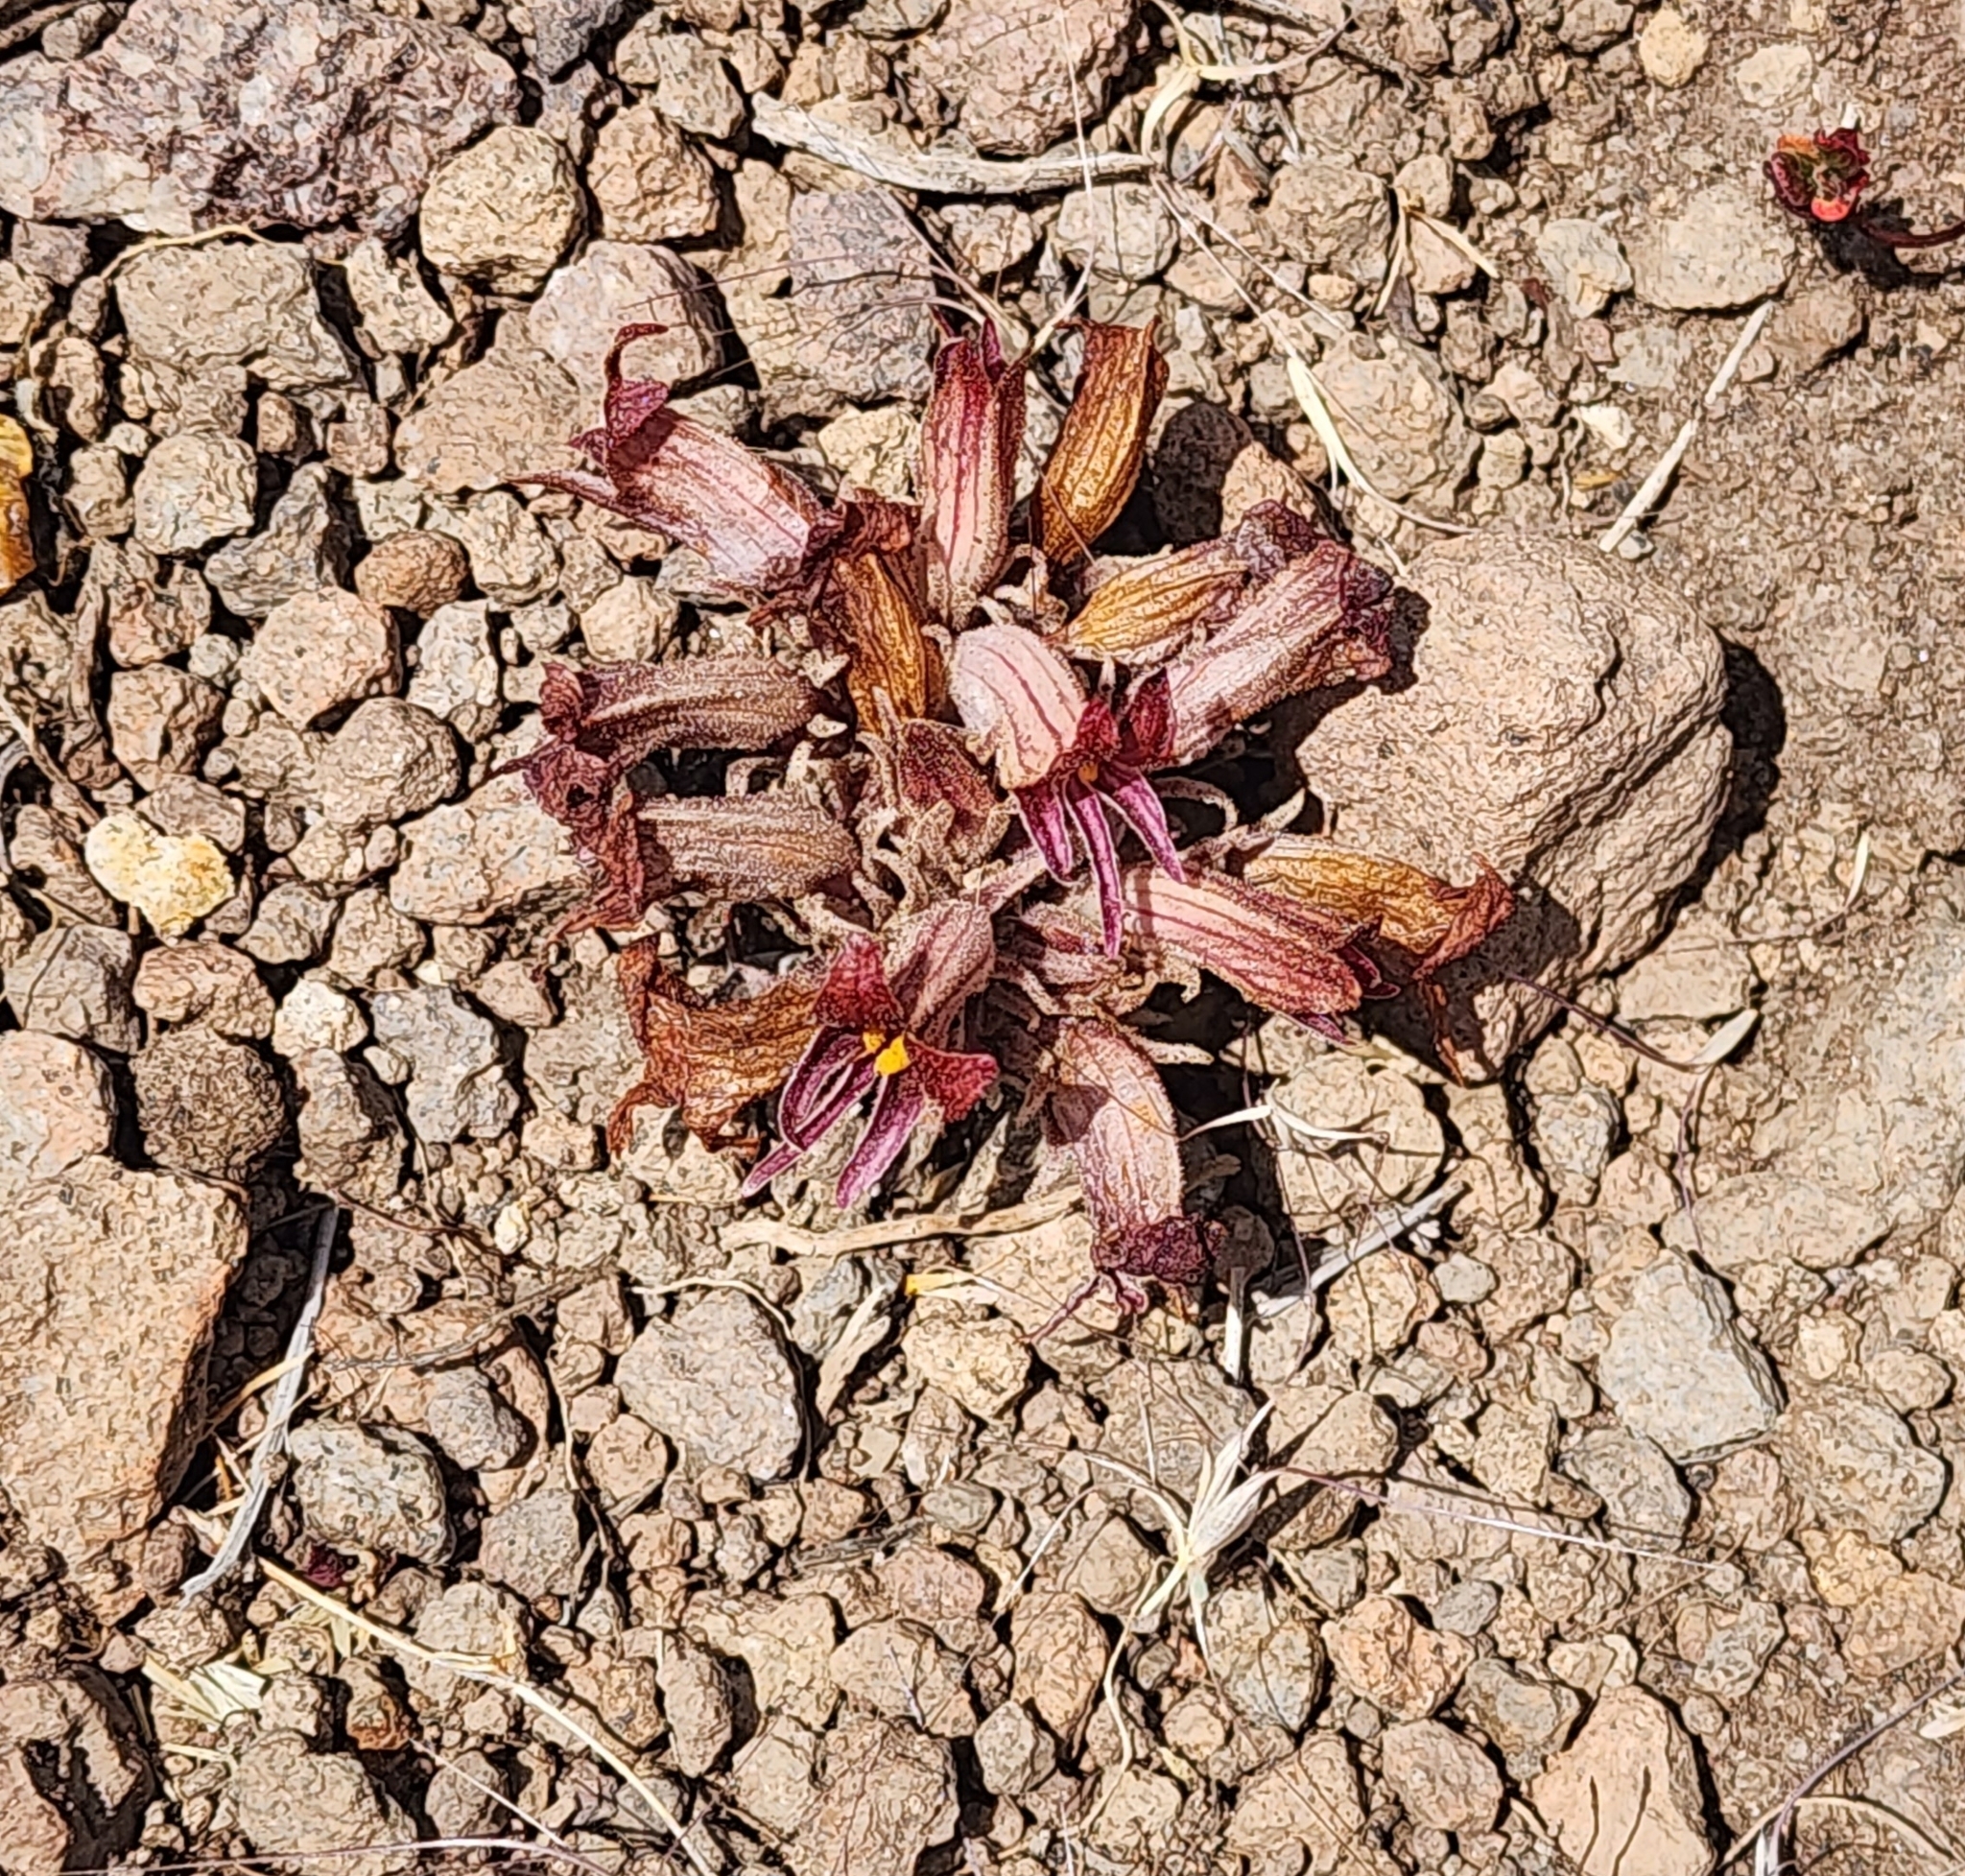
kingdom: Plantae
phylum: Tracheophyta
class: Magnoliopsida
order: Lamiales
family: Orobanchaceae
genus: Aphyllon
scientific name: Aphyllon corymbosum
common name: Flat-top broomrape
